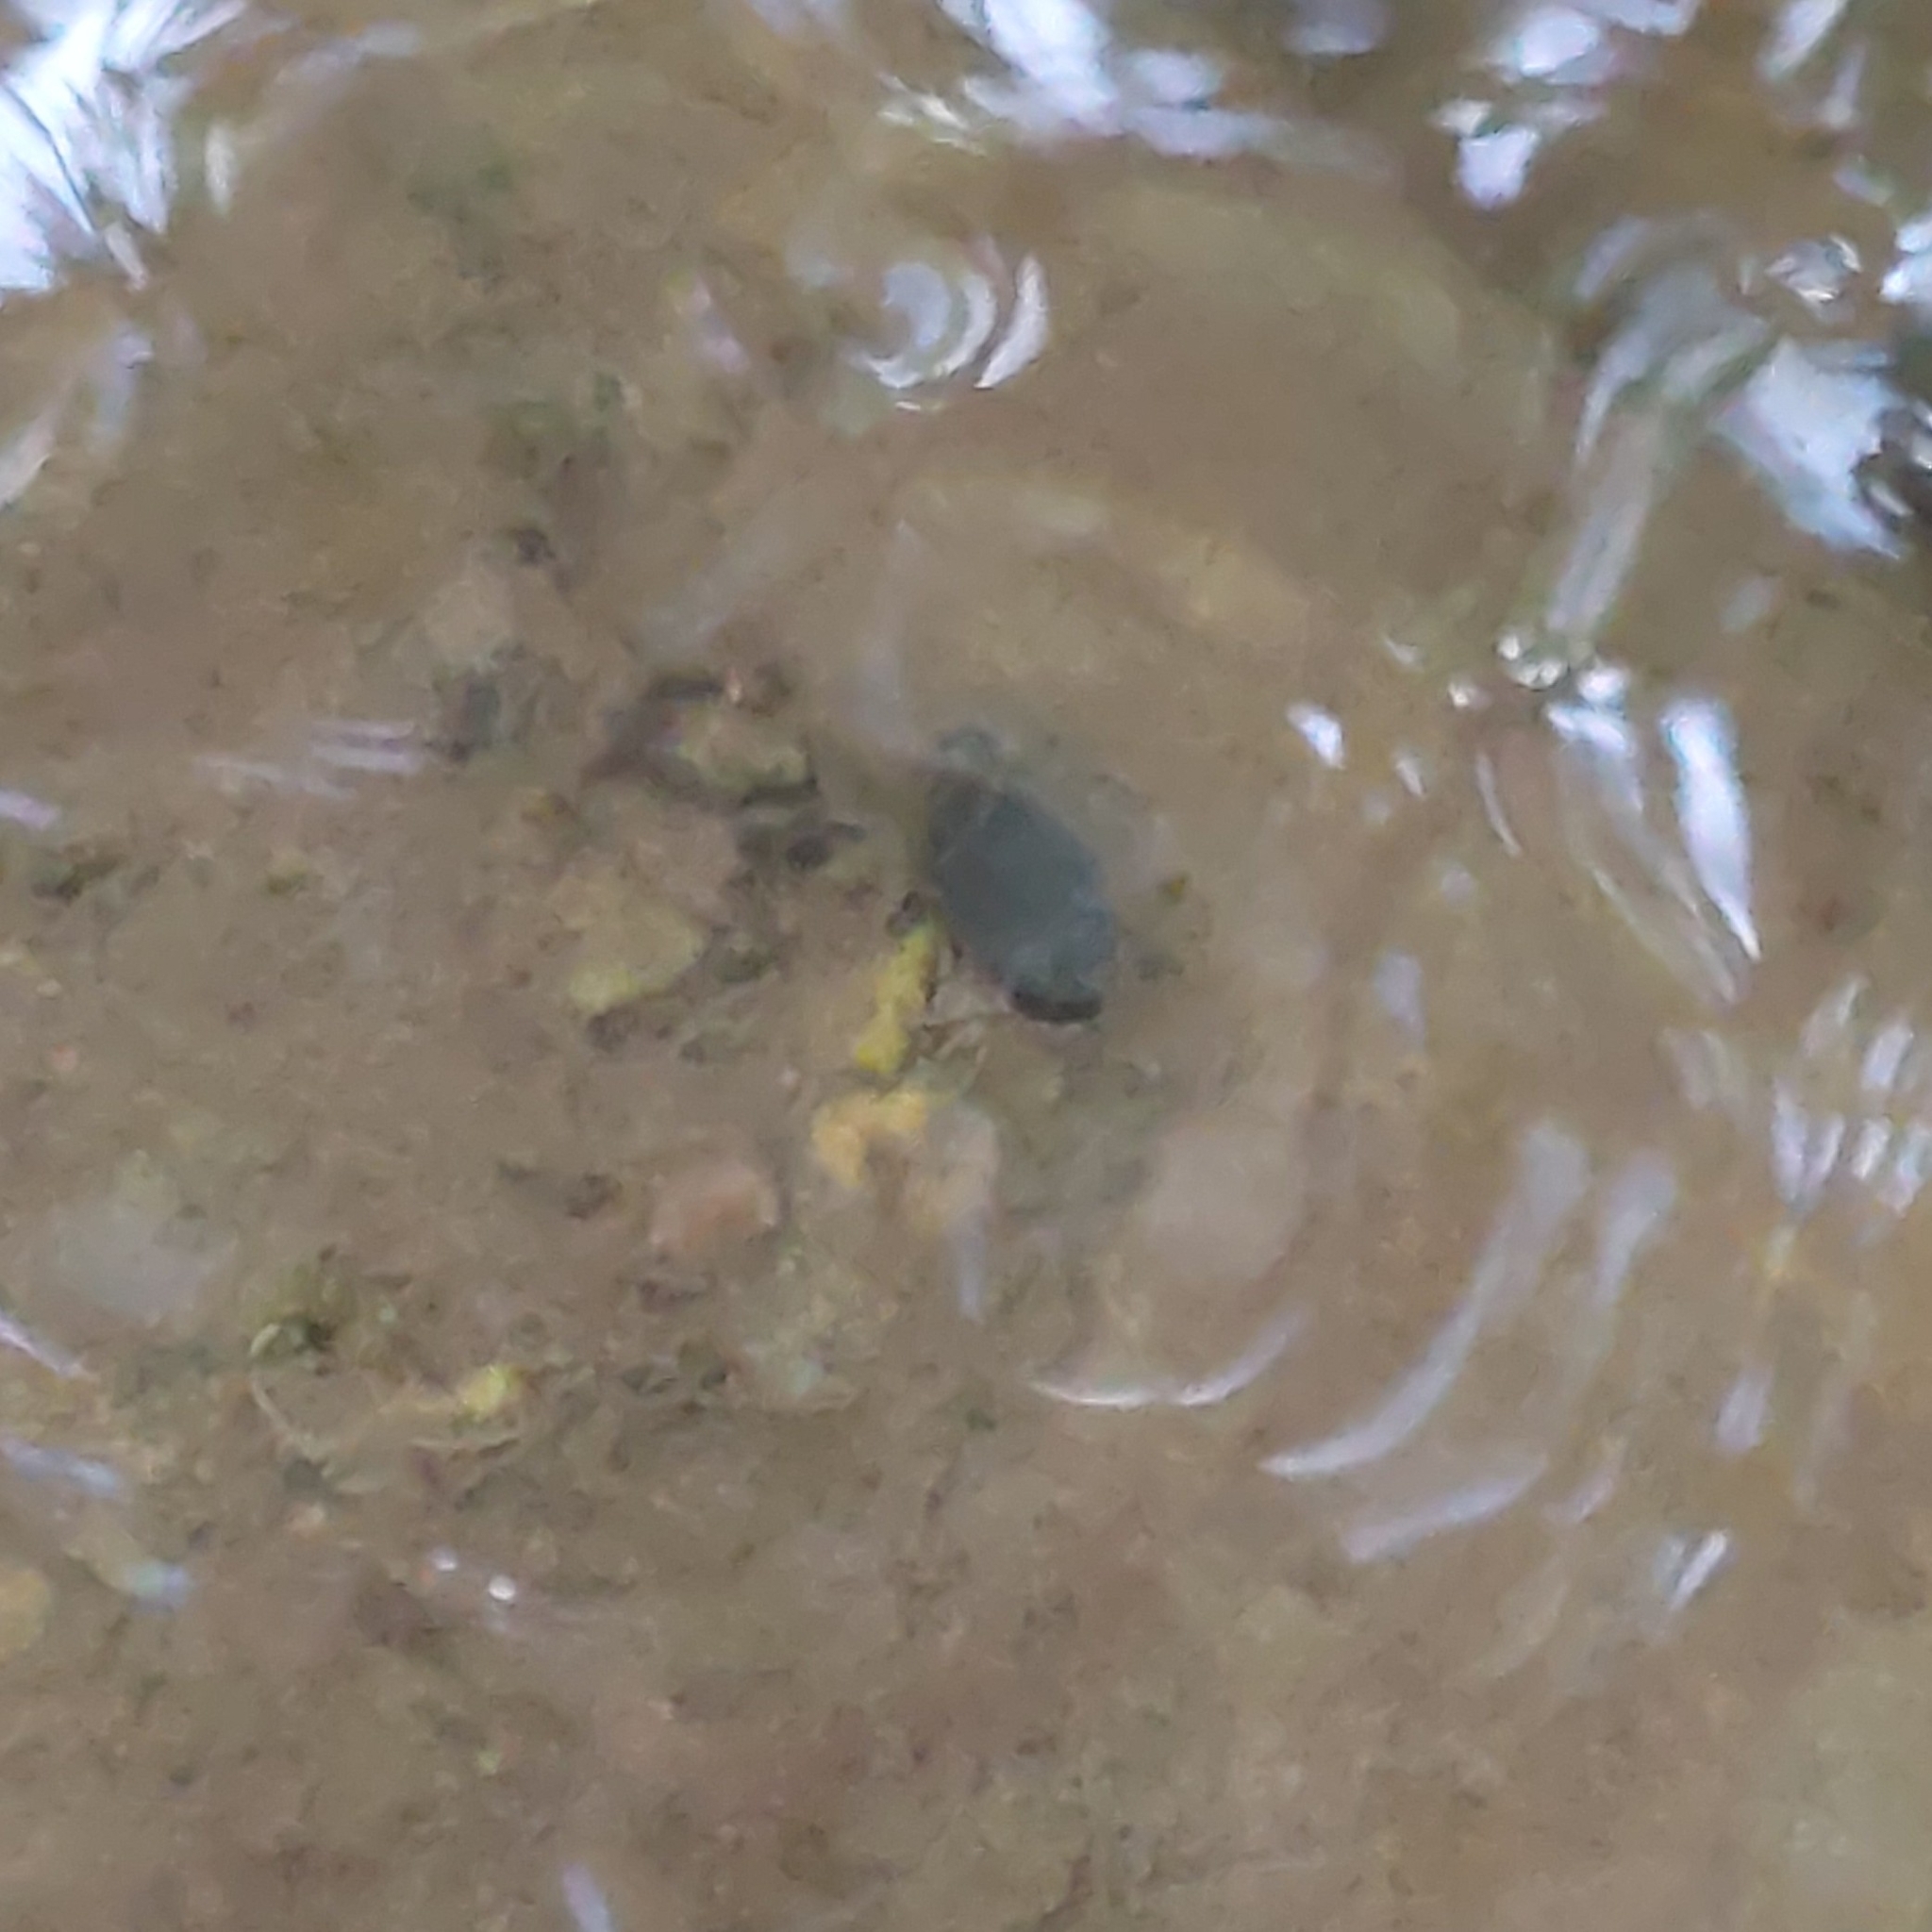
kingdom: Animalia
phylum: Mollusca
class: Gastropoda
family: Chilinidae
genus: Chilina
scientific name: Chilina parchappii
